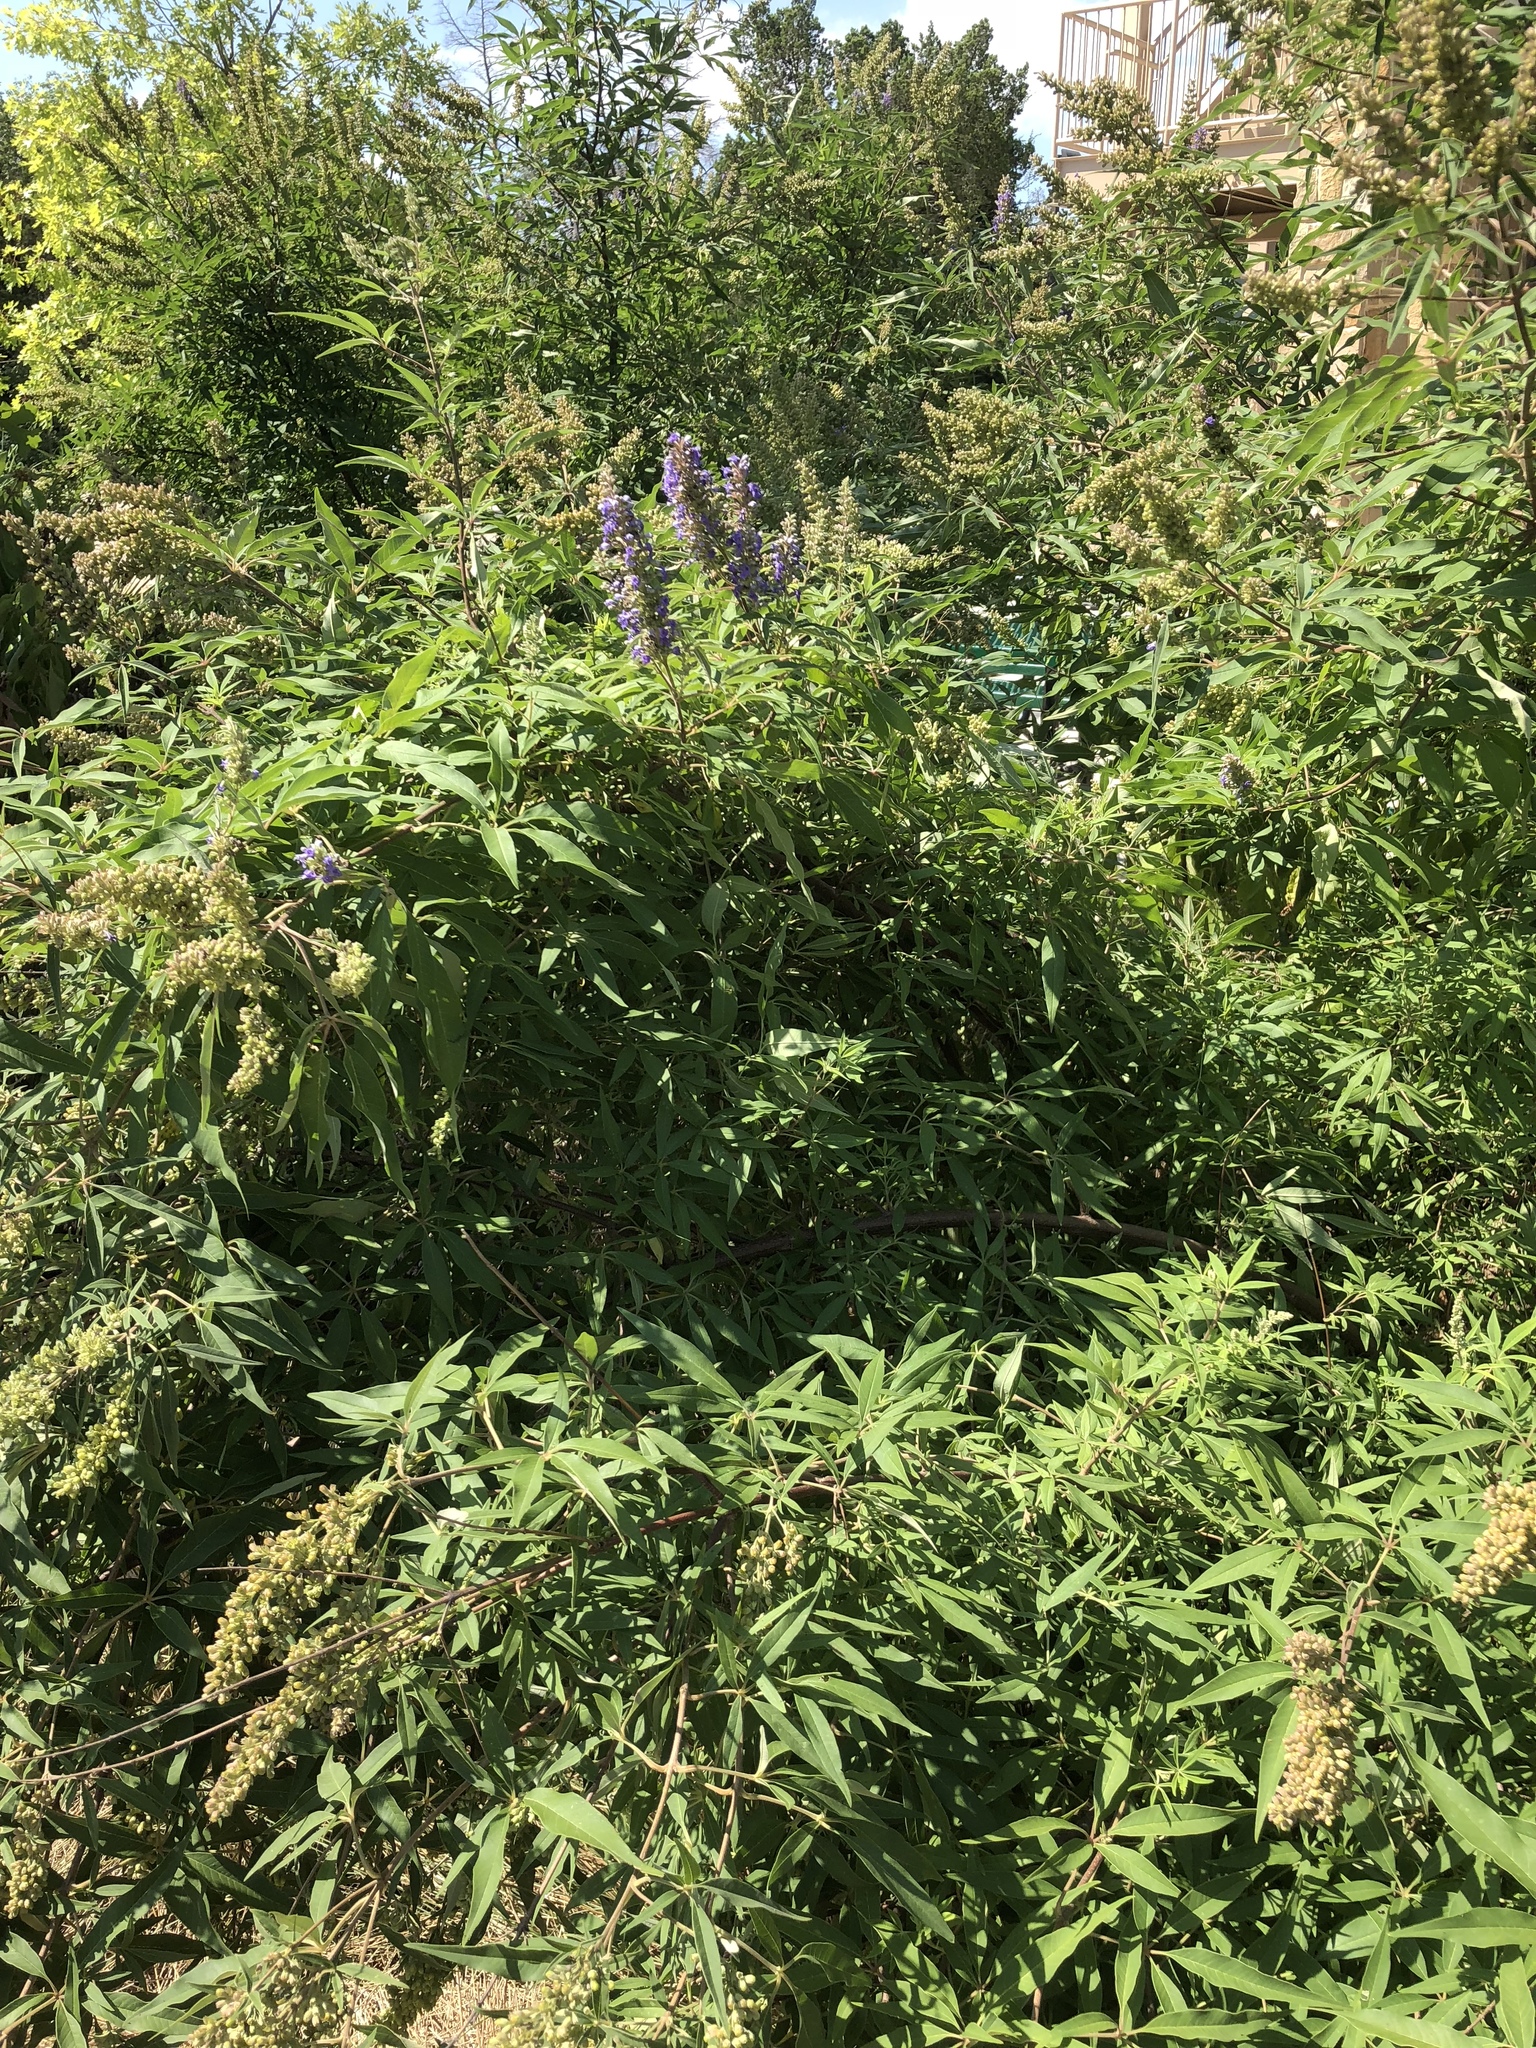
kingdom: Plantae
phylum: Tracheophyta
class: Magnoliopsida
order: Lamiales
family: Lamiaceae
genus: Vitex
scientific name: Vitex agnus-castus
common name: Chasteberry
